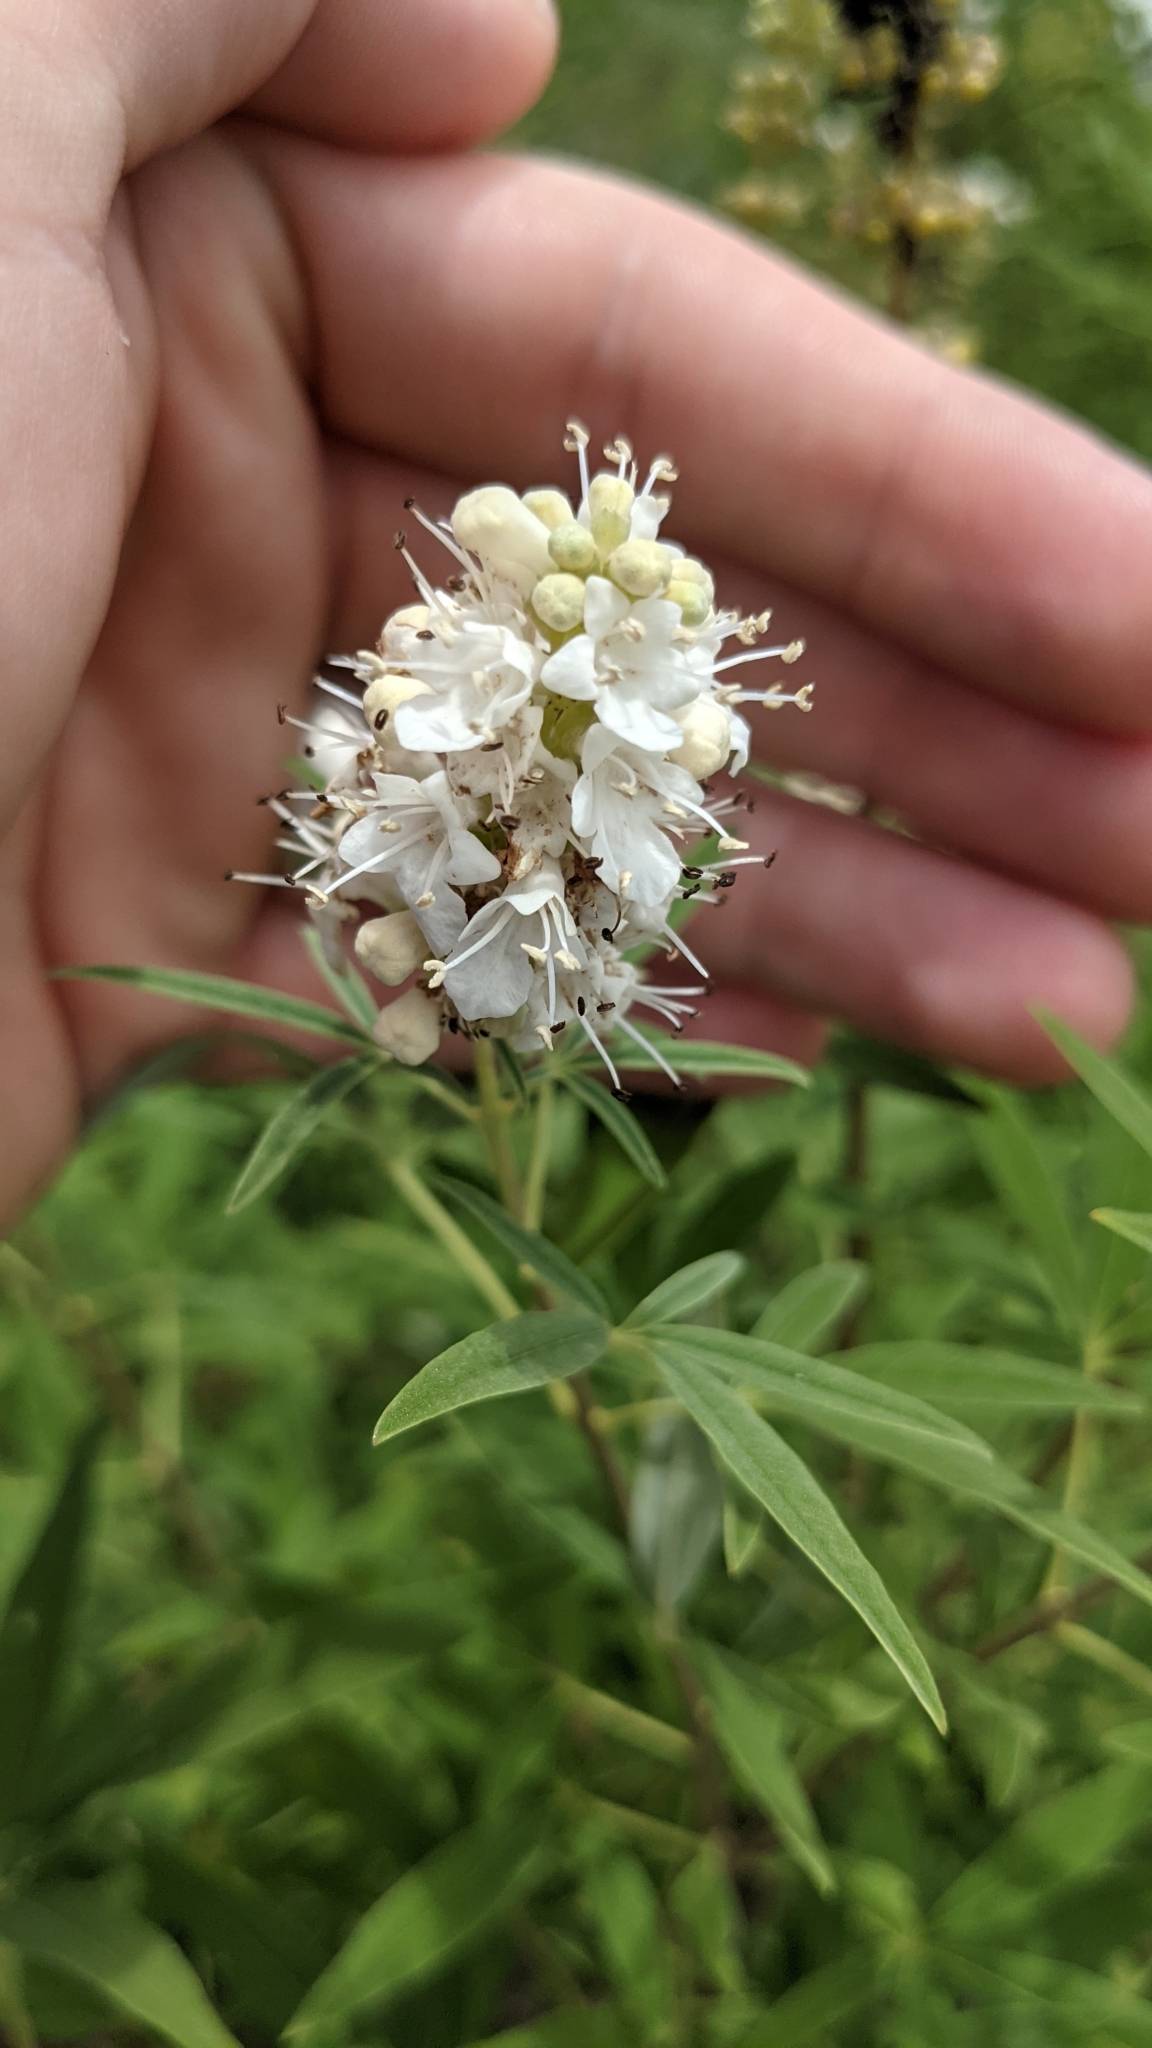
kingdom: Plantae
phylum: Tracheophyta
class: Magnoliopsida
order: Lamiales
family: Lamiaceae
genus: Vitex
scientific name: Vitex agnus-castus
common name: Chasteberry
